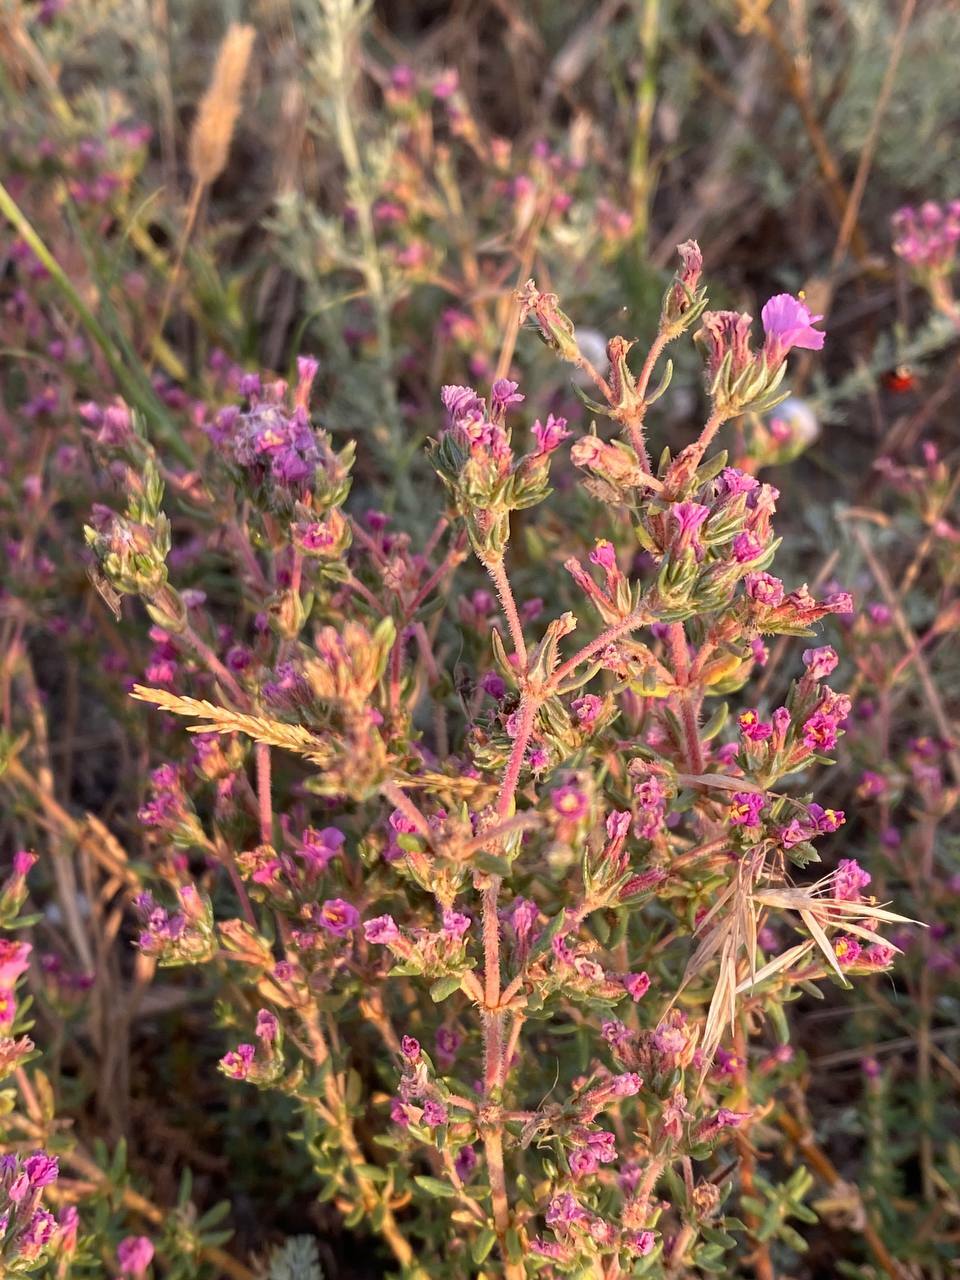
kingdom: Plantae
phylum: Tracheophyta
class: Magnoliopsida
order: Caryophyllales
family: Frankeniaceae
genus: Frankenia
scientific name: Frankenia hirsuta
